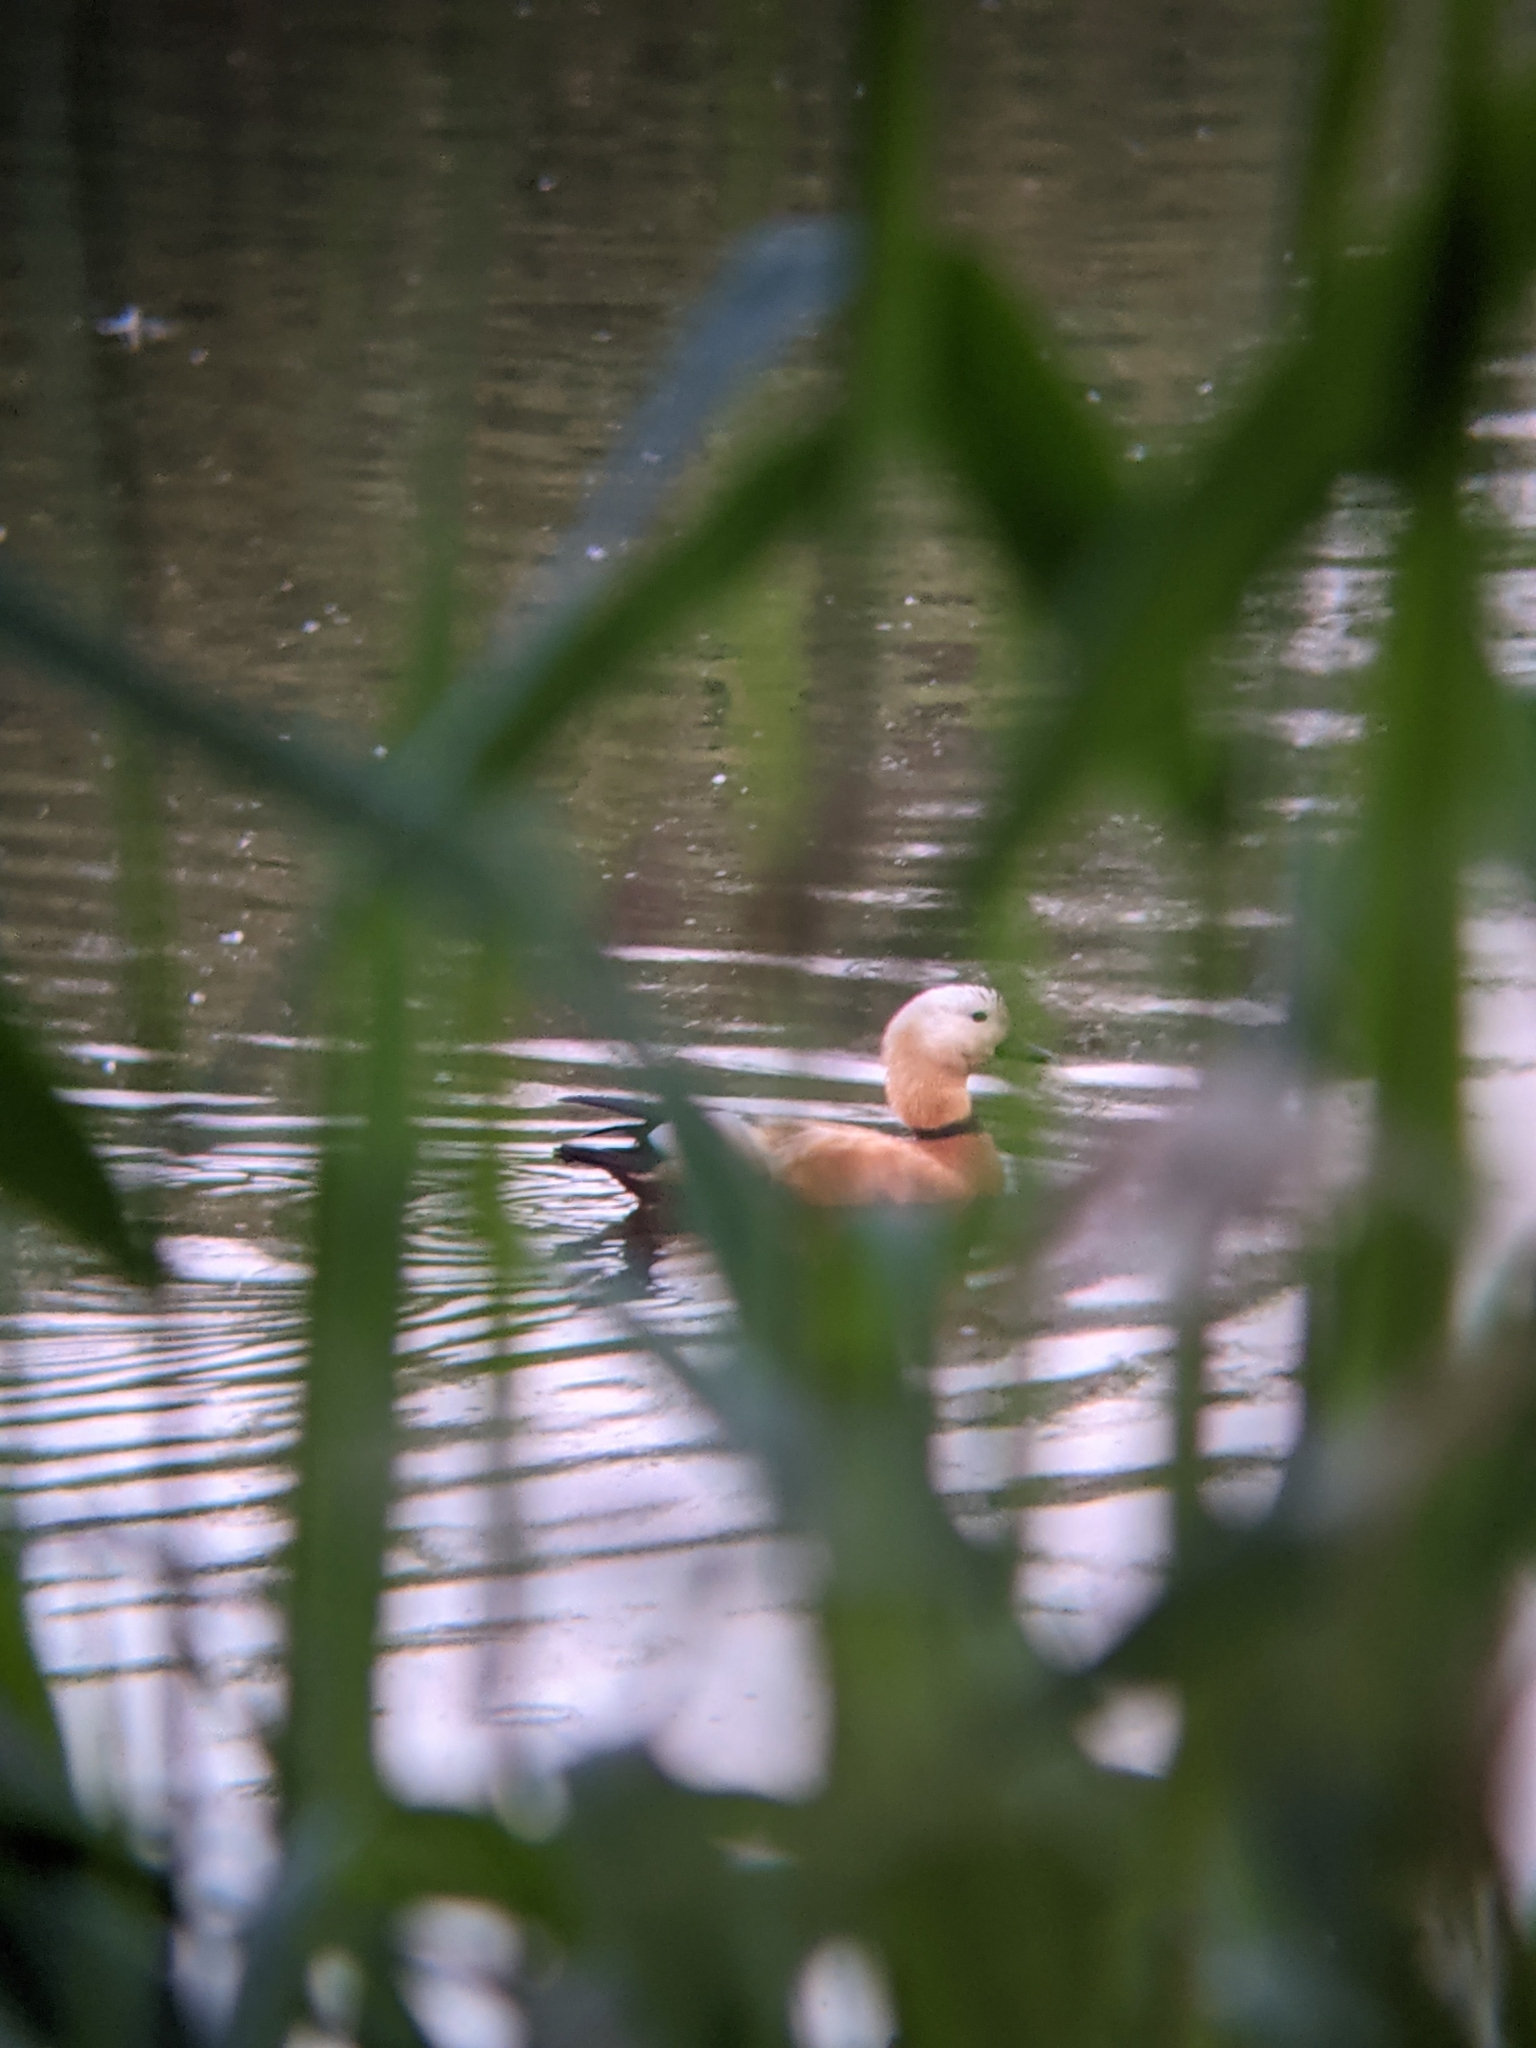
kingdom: Animalia
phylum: Chordata
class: Aves
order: Anseriformes
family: Anatidae
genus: Tadorna
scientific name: Tadorna ferruginea
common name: Ruddy shelduck
